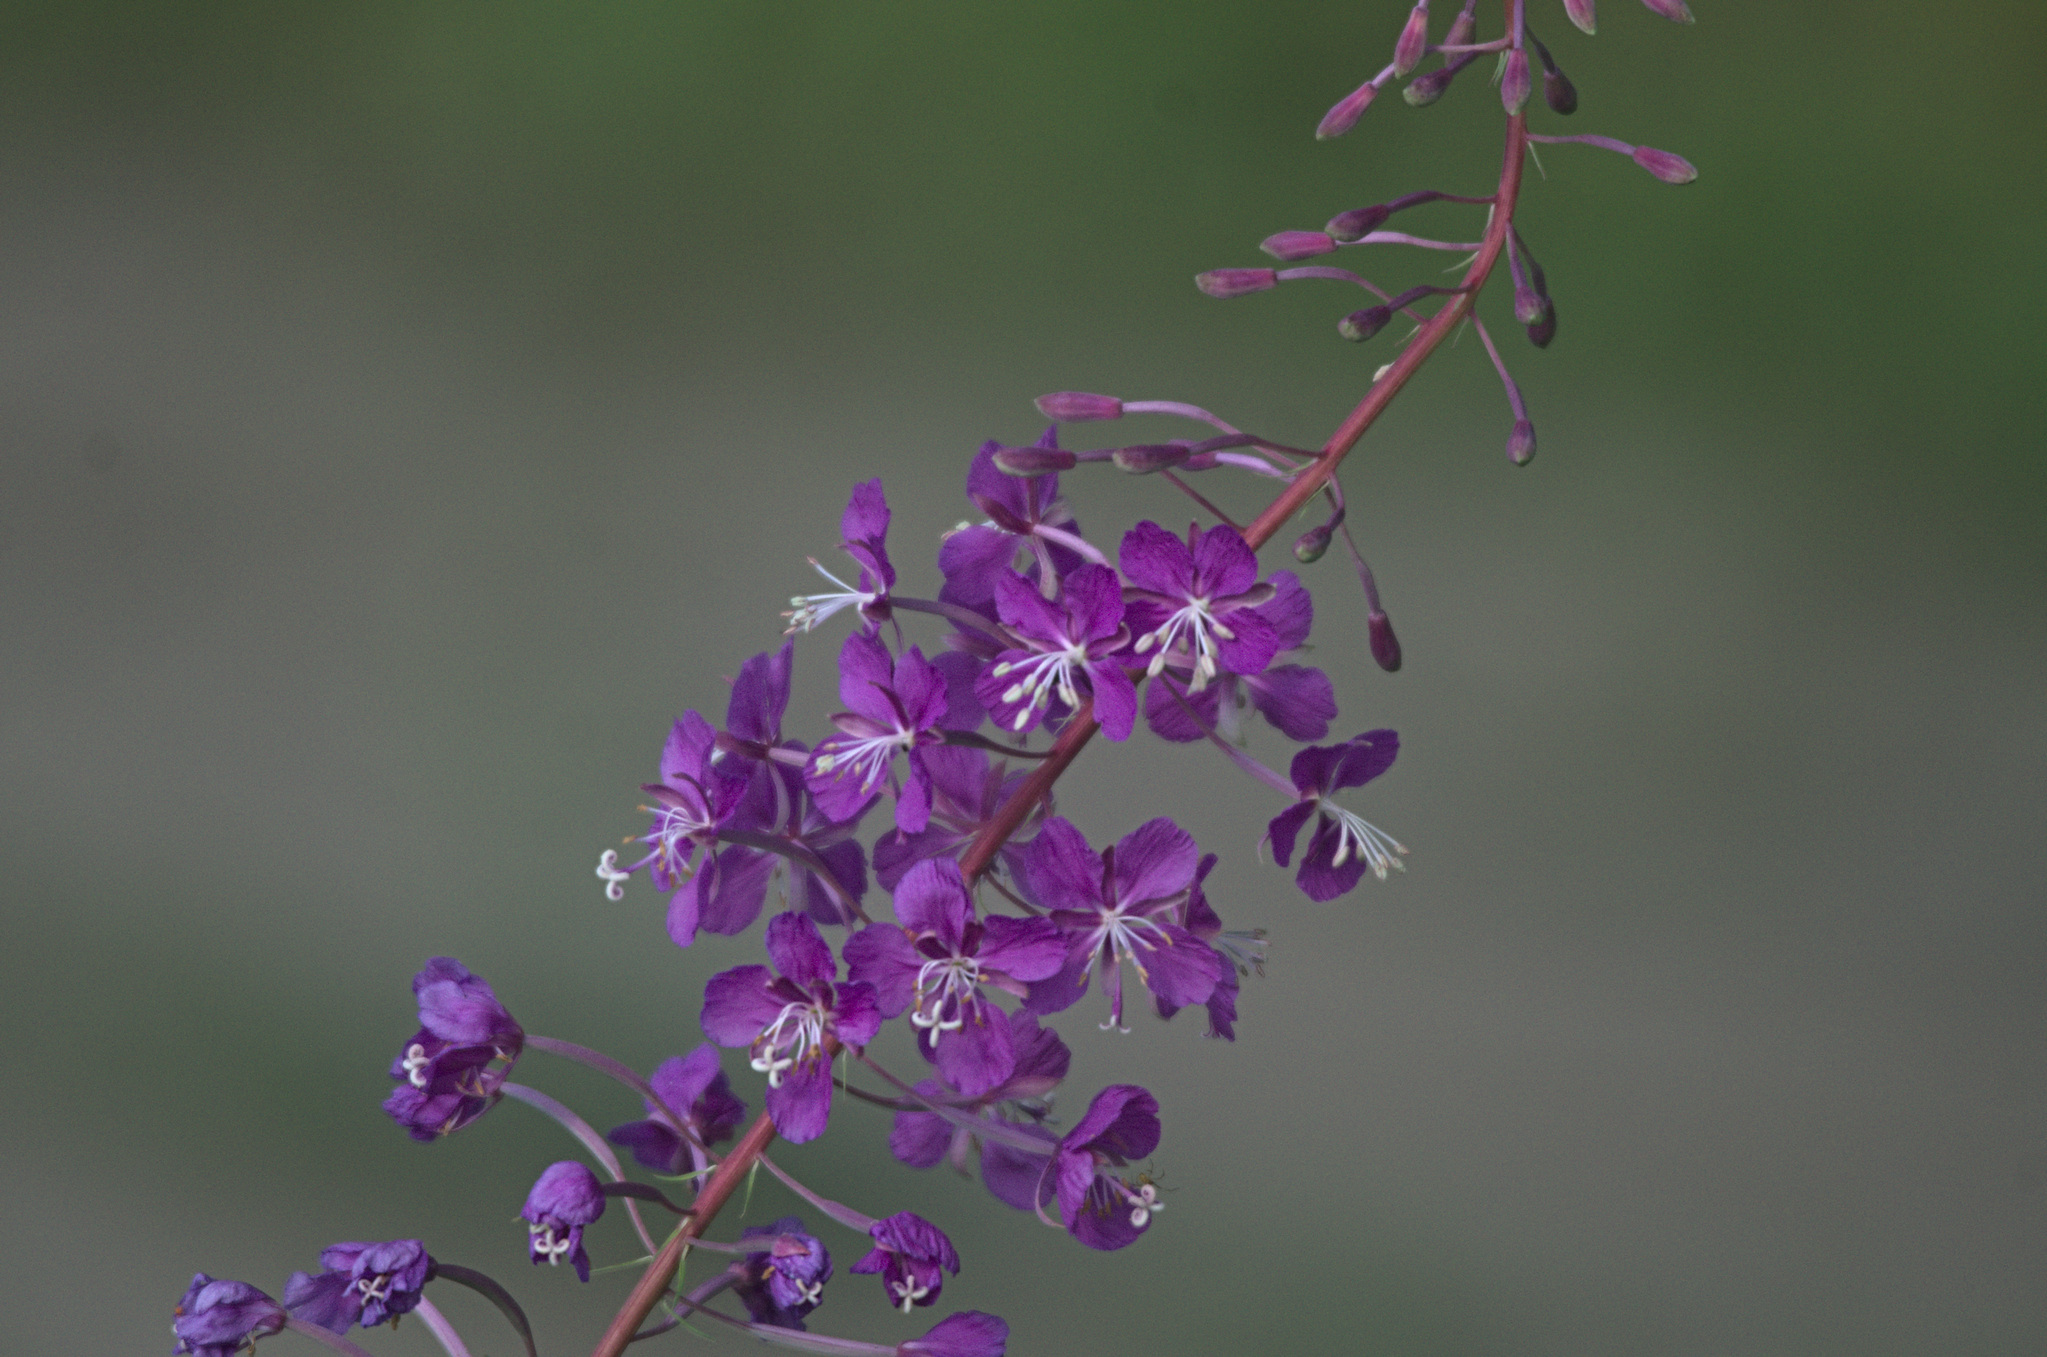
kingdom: Plantae
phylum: Tracheophyta
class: Magnoliopsida
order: Myrtales
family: Onagraceae
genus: Chamaenerion
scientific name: Chamaenerion angustifolium
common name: Fireweed
